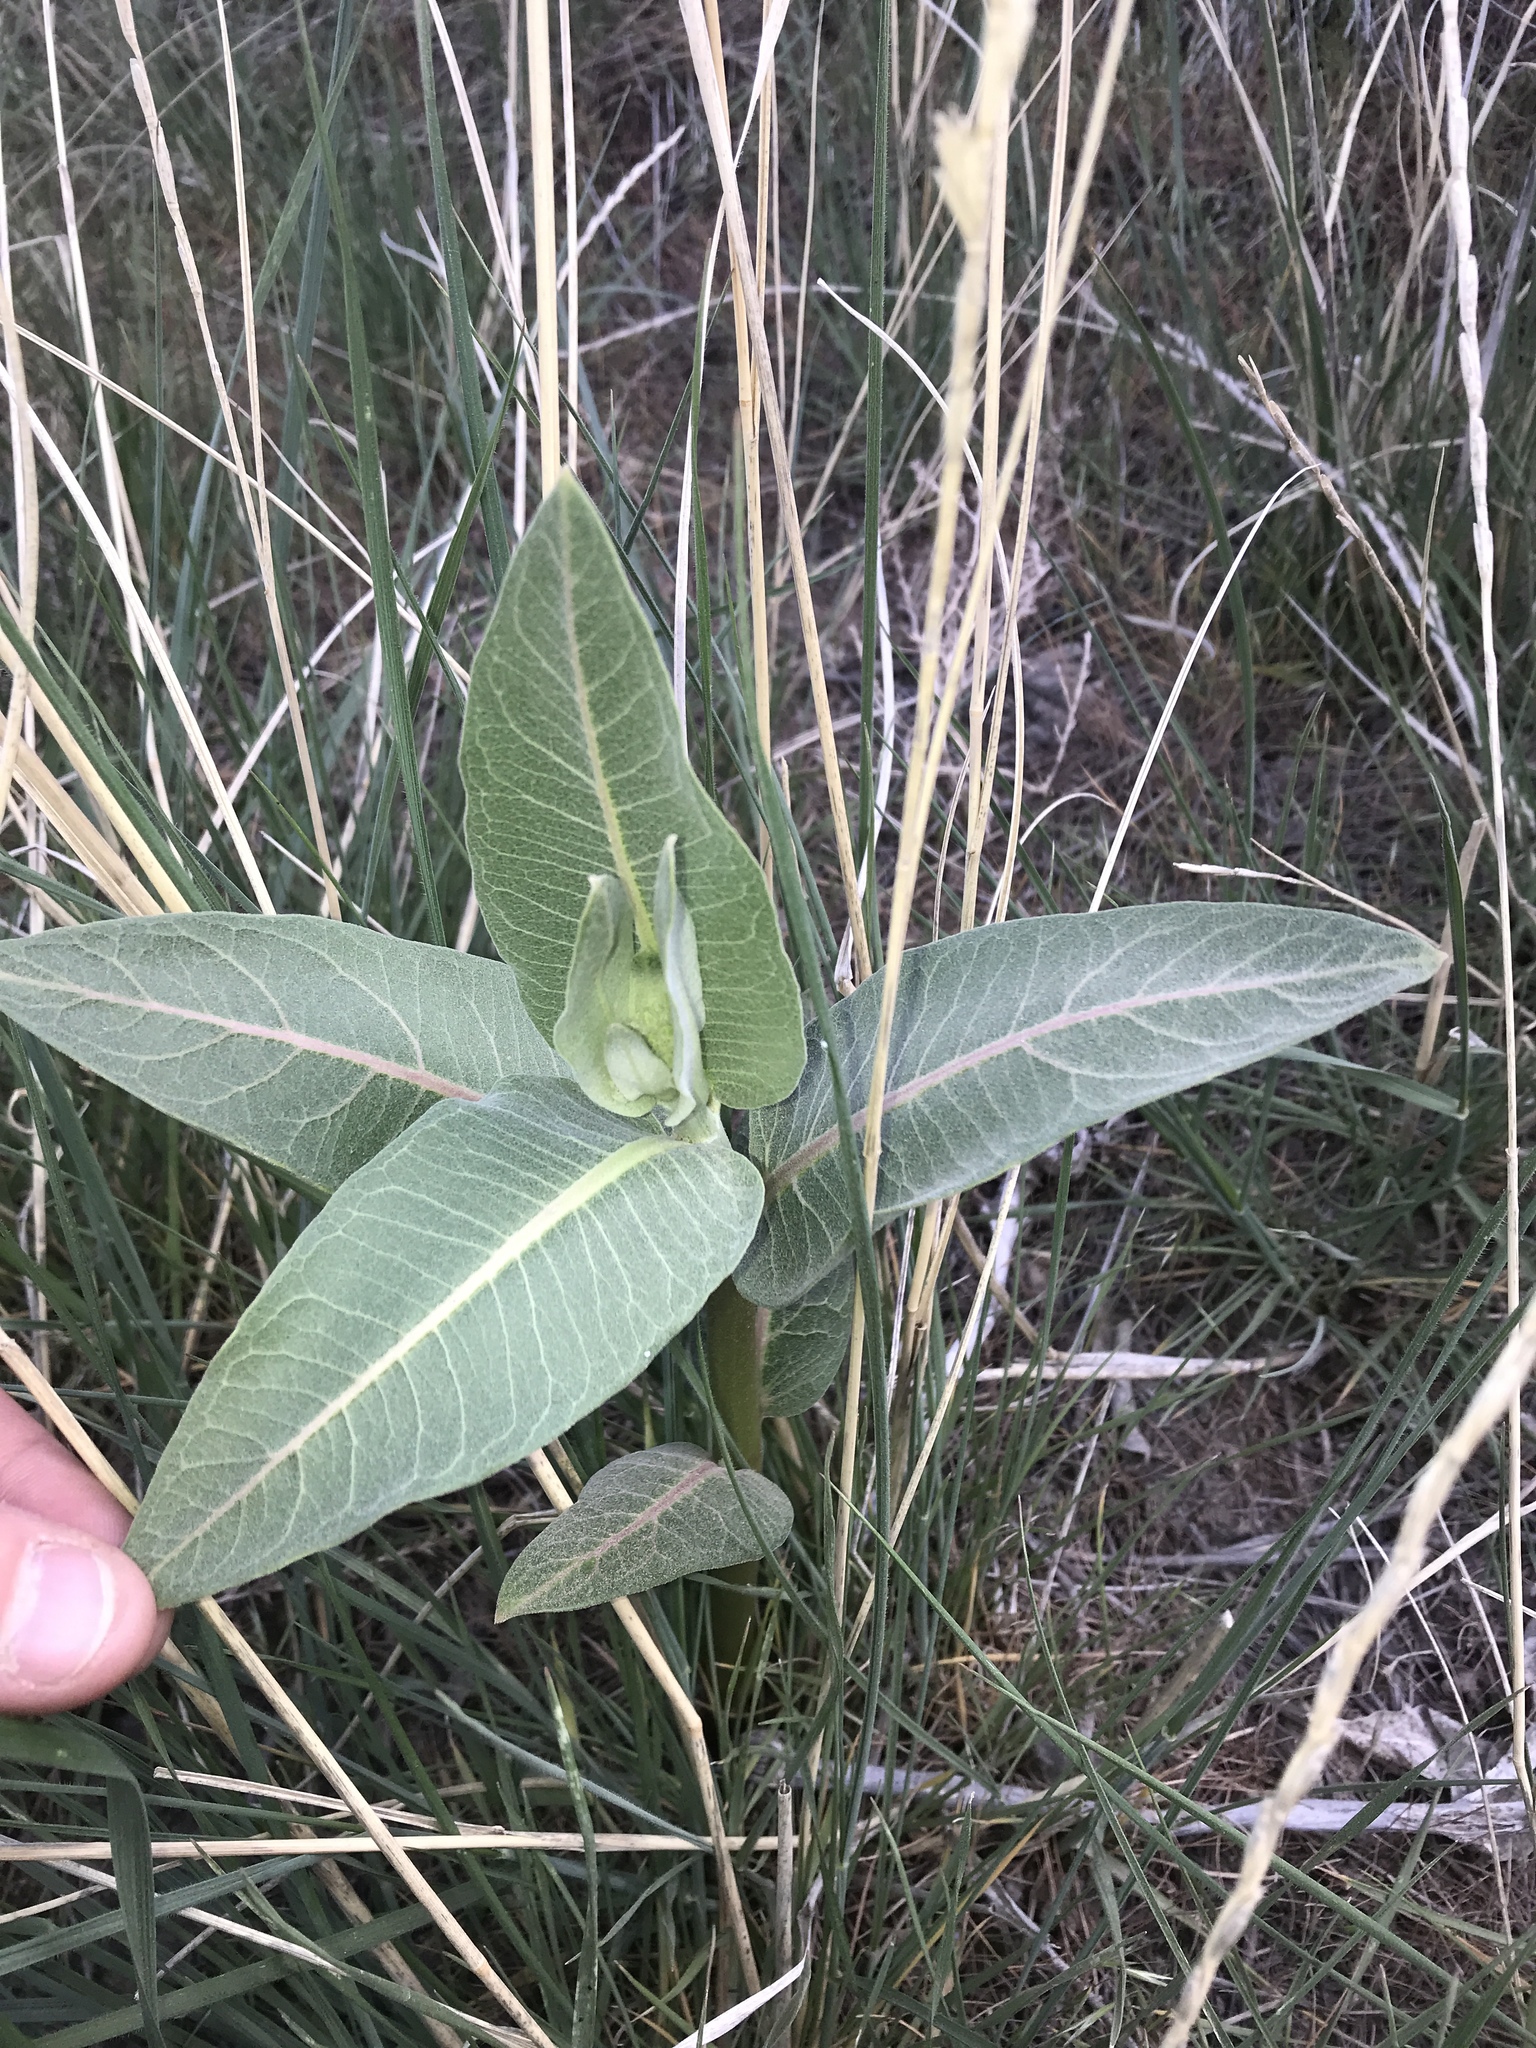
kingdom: Plantae
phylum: Tracheophyta
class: Magnoliopsida
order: Gentianales
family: Apocynaceae
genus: Asclepias
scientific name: Asclepias speciosa
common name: Showy milkweed
